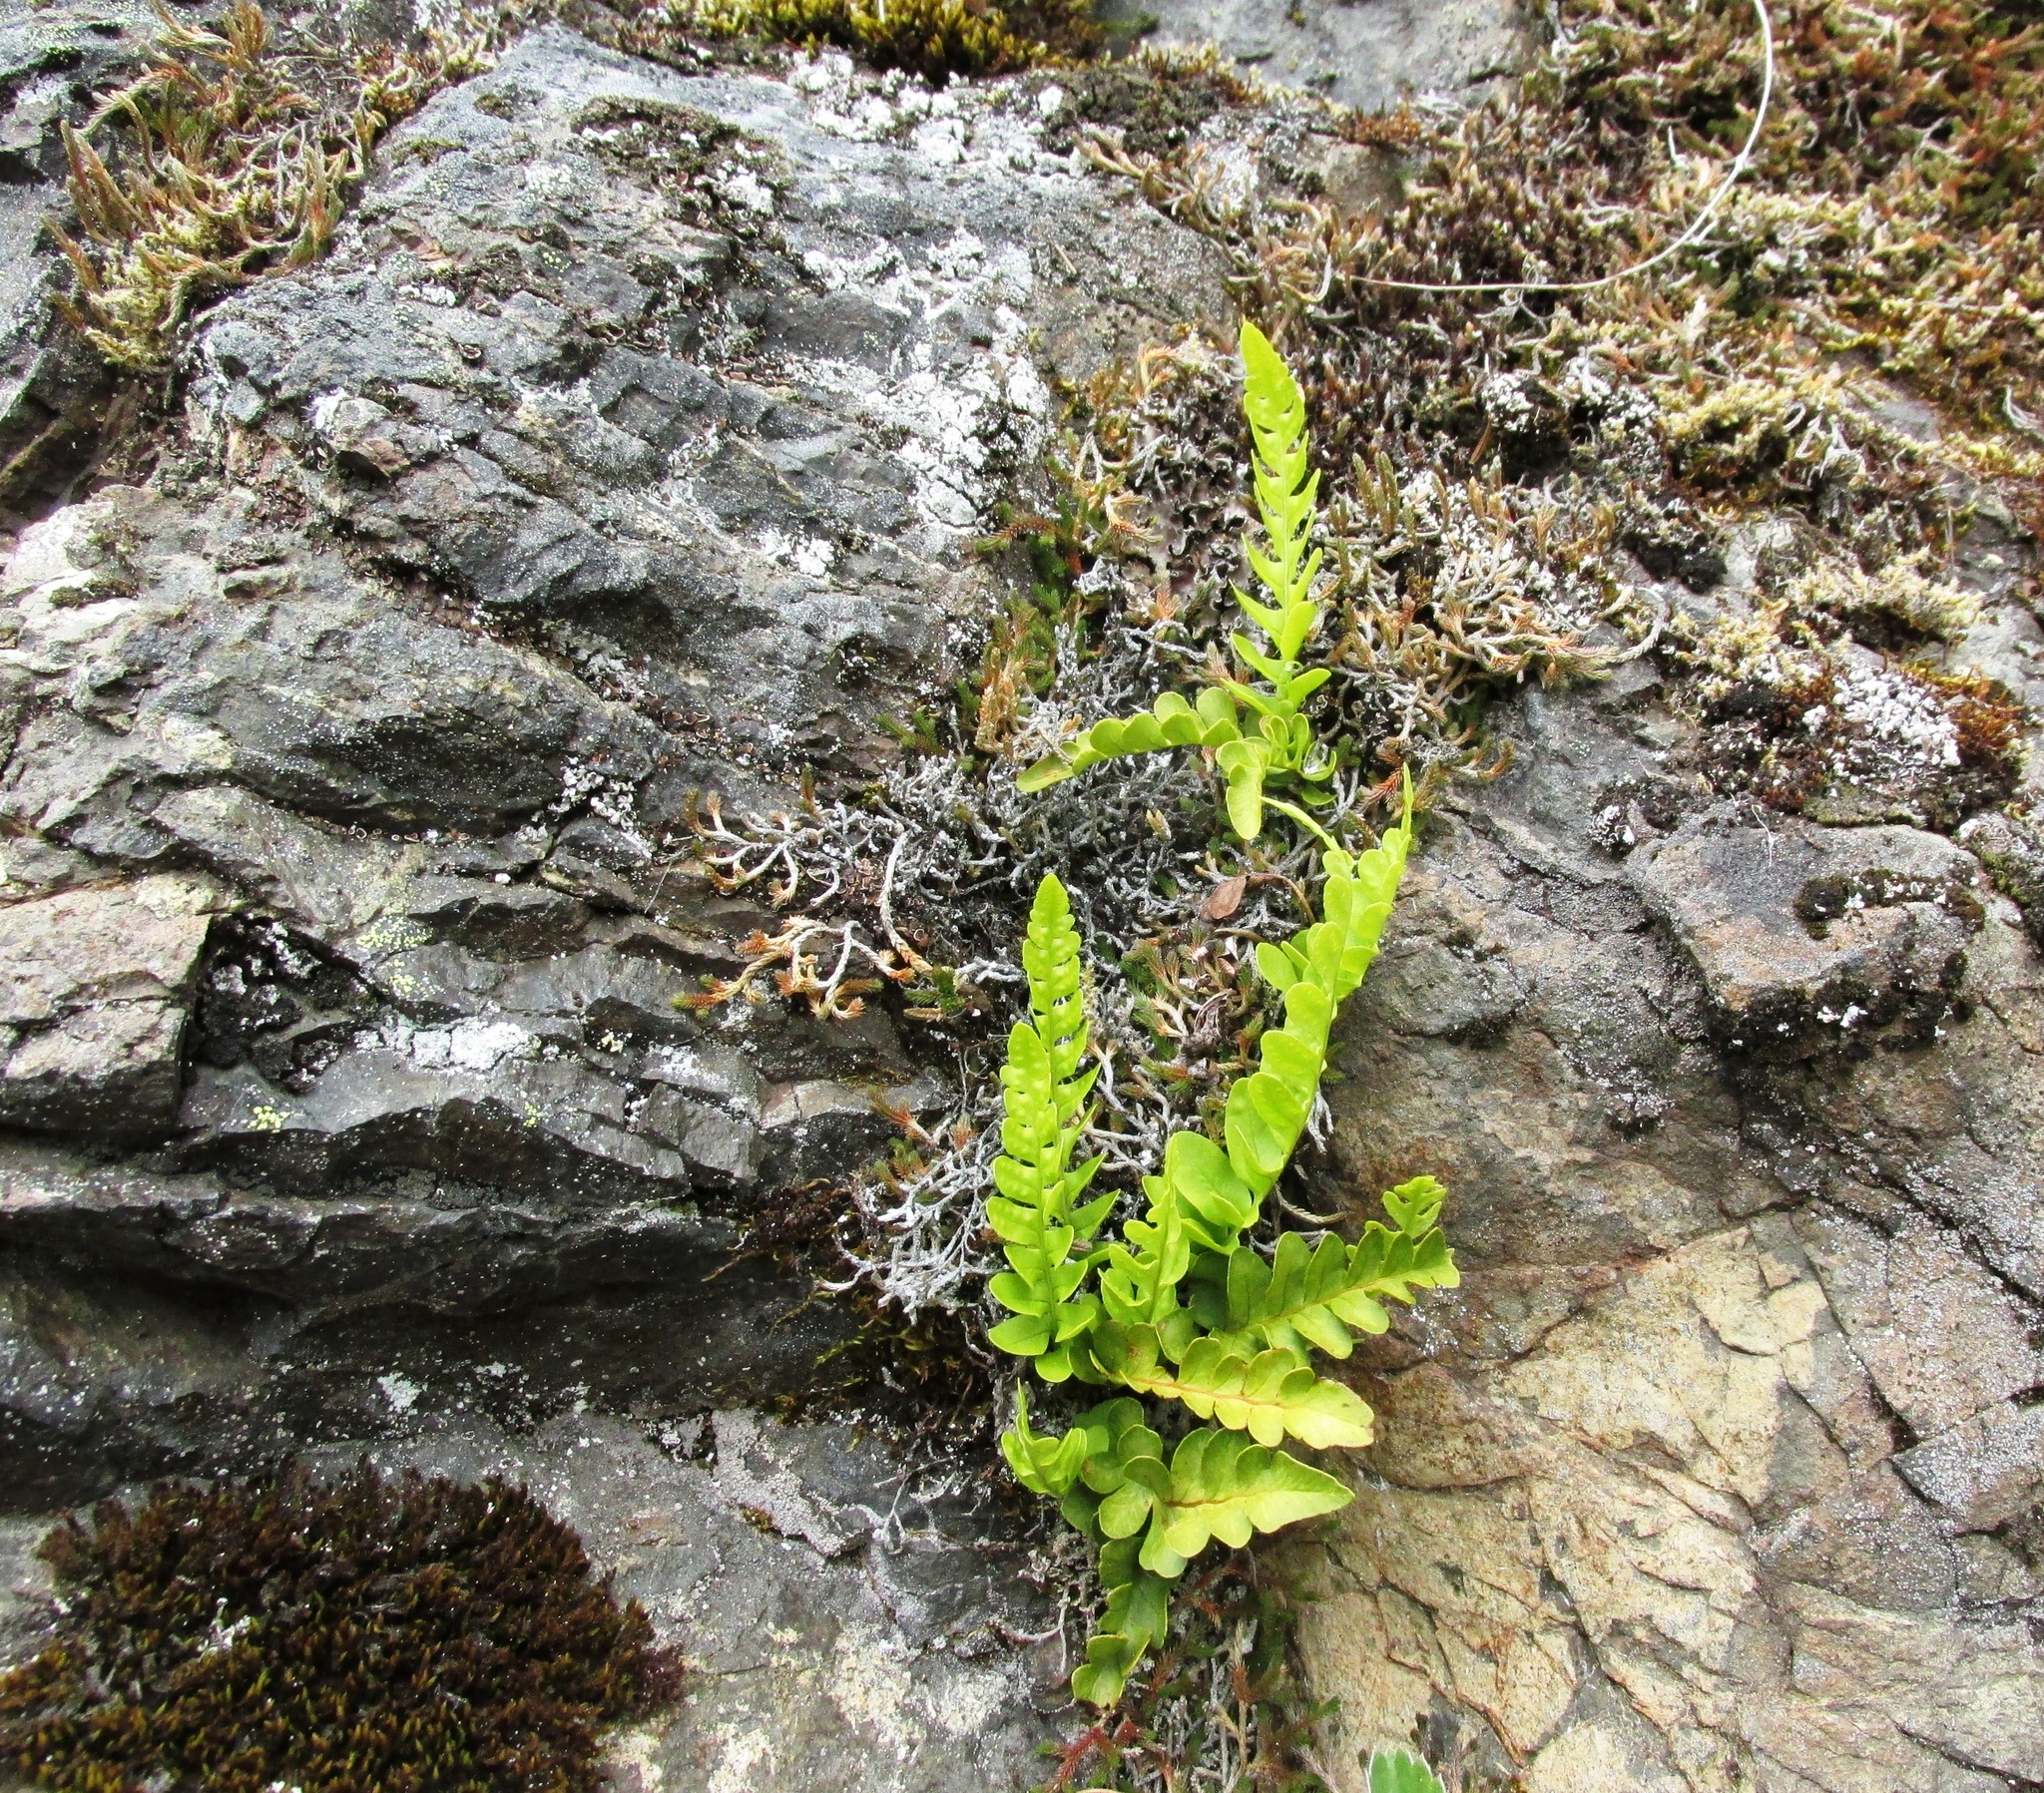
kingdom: Plantae
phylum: Tracheophyta
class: Polypodiopsida
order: Polypodiales
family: Polypodiaceae
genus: Polypodium
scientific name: Polypodium amorphum
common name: Pacific polypody
